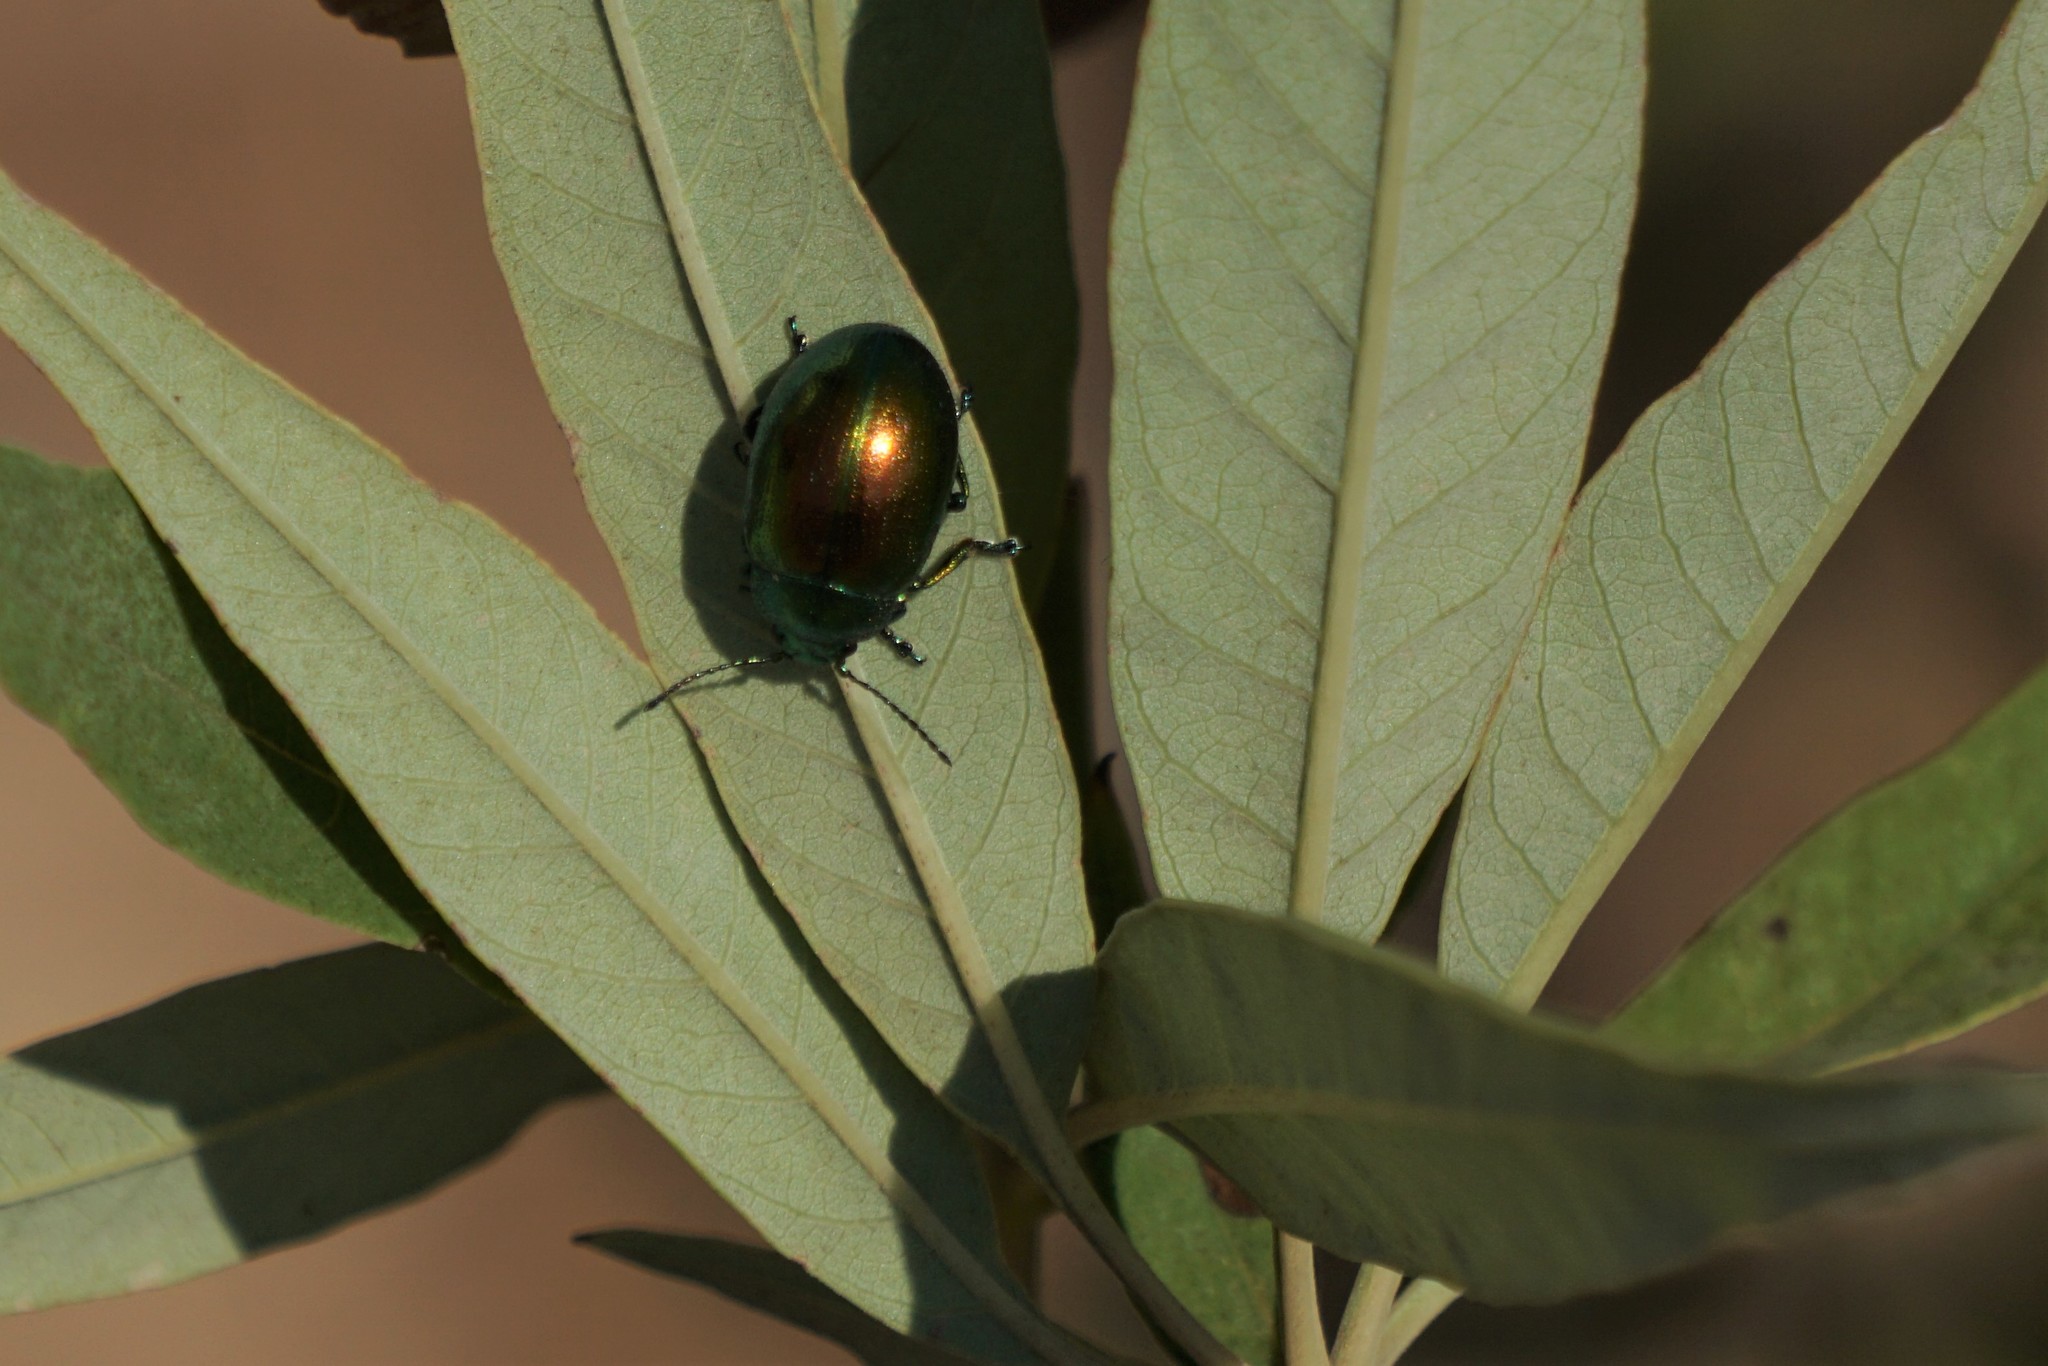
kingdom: Animalia
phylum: Arthropoda
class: Insecta
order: Coleoptera
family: Chrysomelidae
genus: Chrysolina
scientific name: Chrysolina viridana
